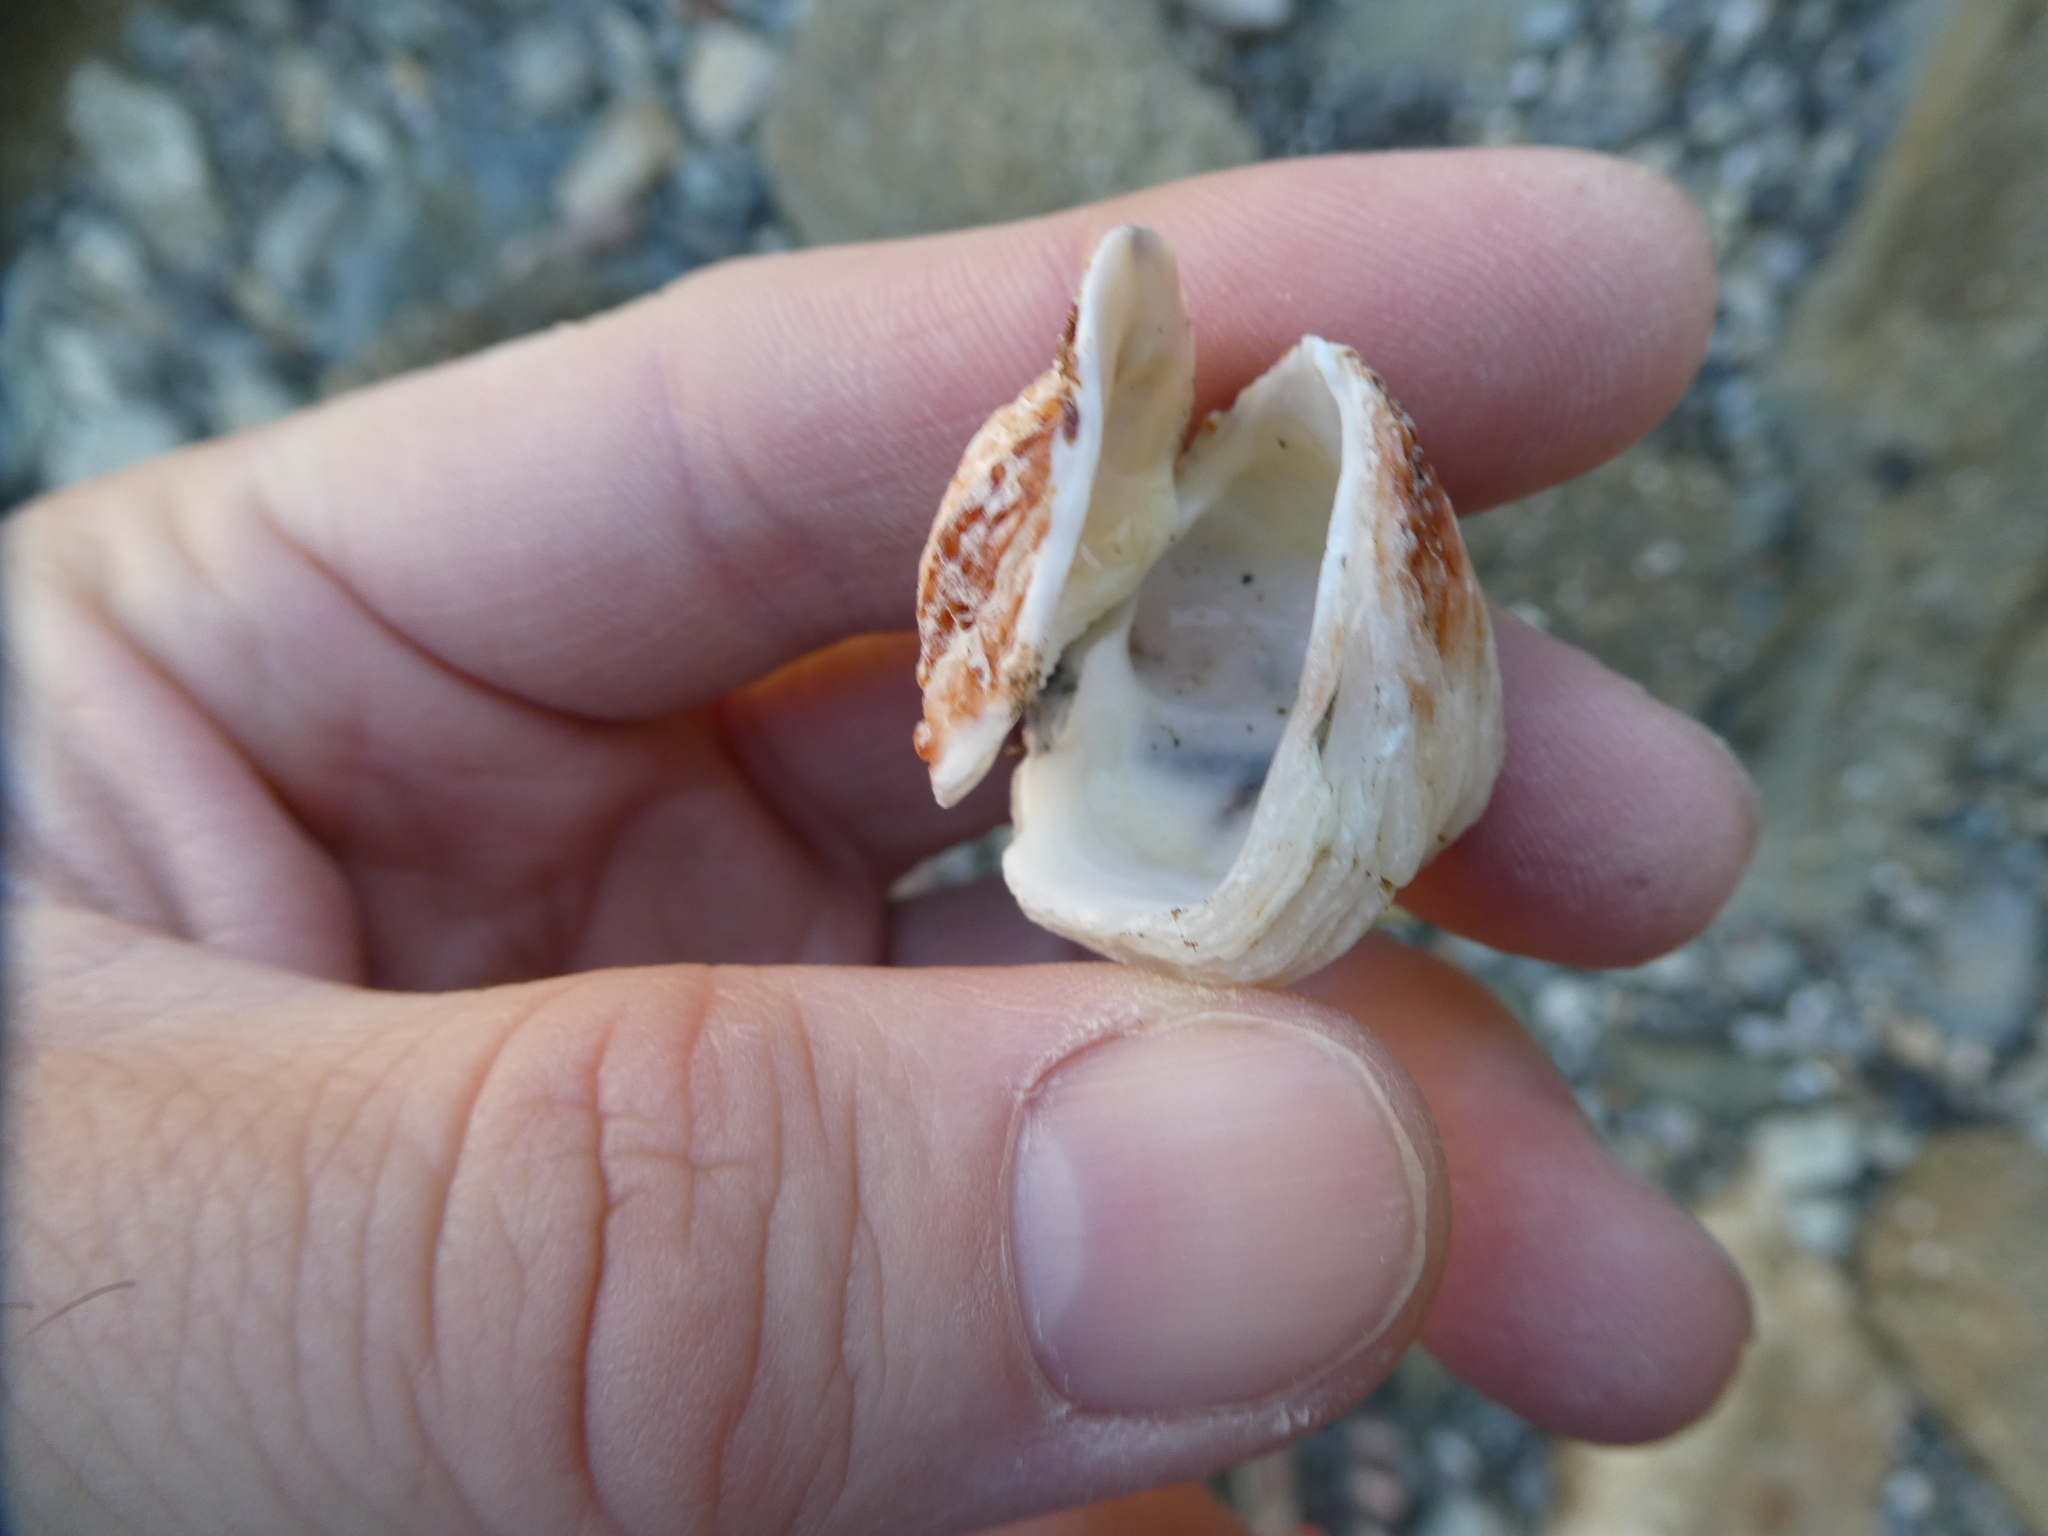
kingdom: Animalia
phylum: Mollusca
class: Bivalvia
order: Venerida
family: Chamidae
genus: Chama
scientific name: Chama arcana
